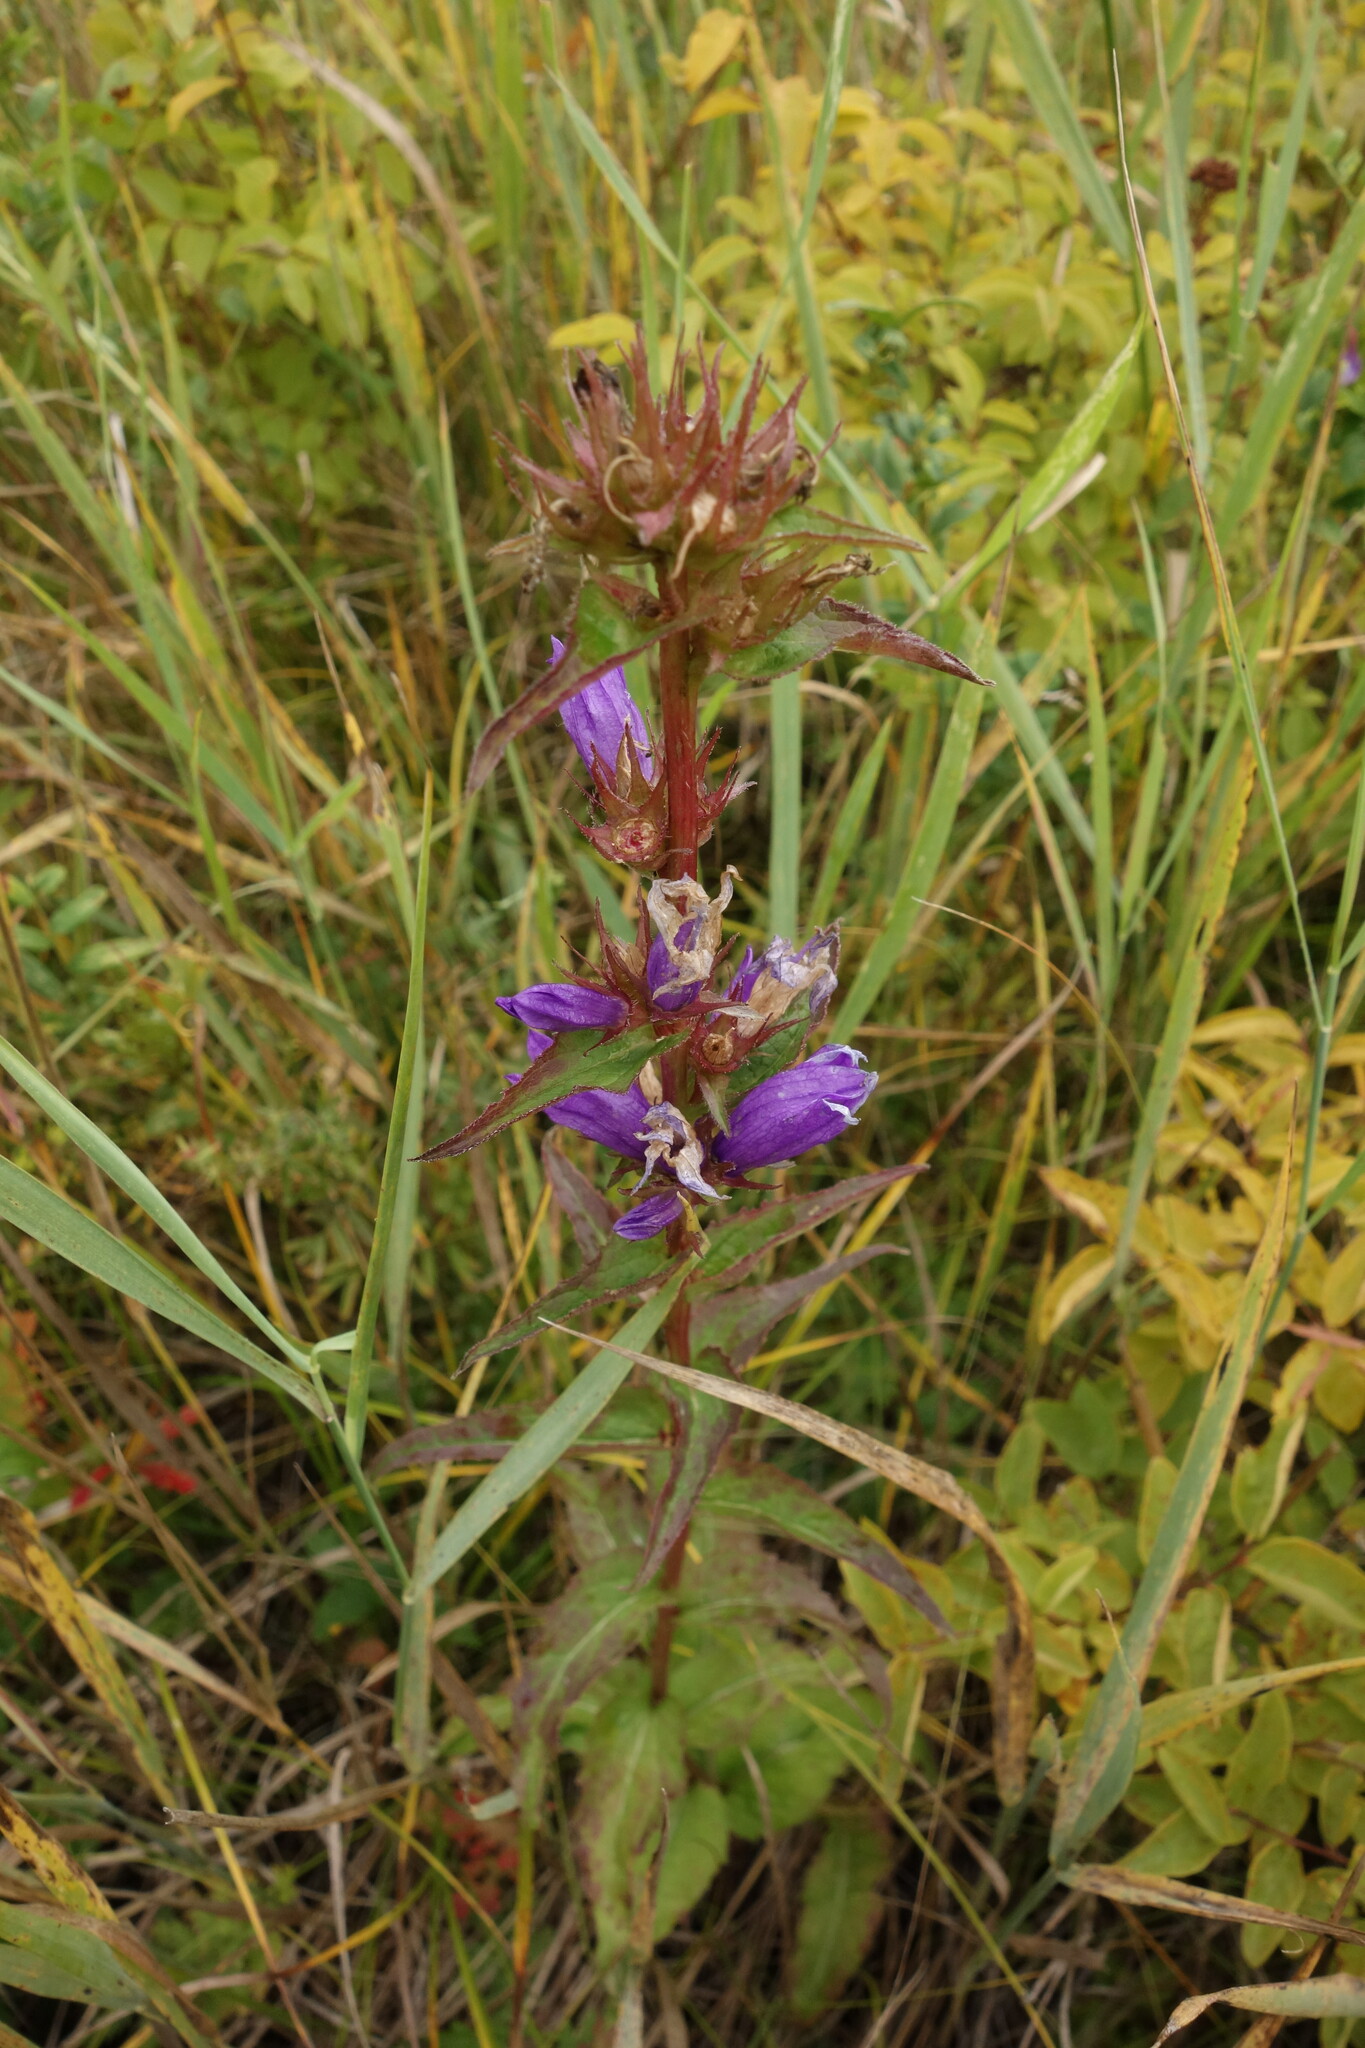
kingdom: Plantae
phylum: Tracheophyta
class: Magnoliopsida
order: Asterales
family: Campanulaceae
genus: Campanula
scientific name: Campanula glomerata
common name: Clustered bellflower
